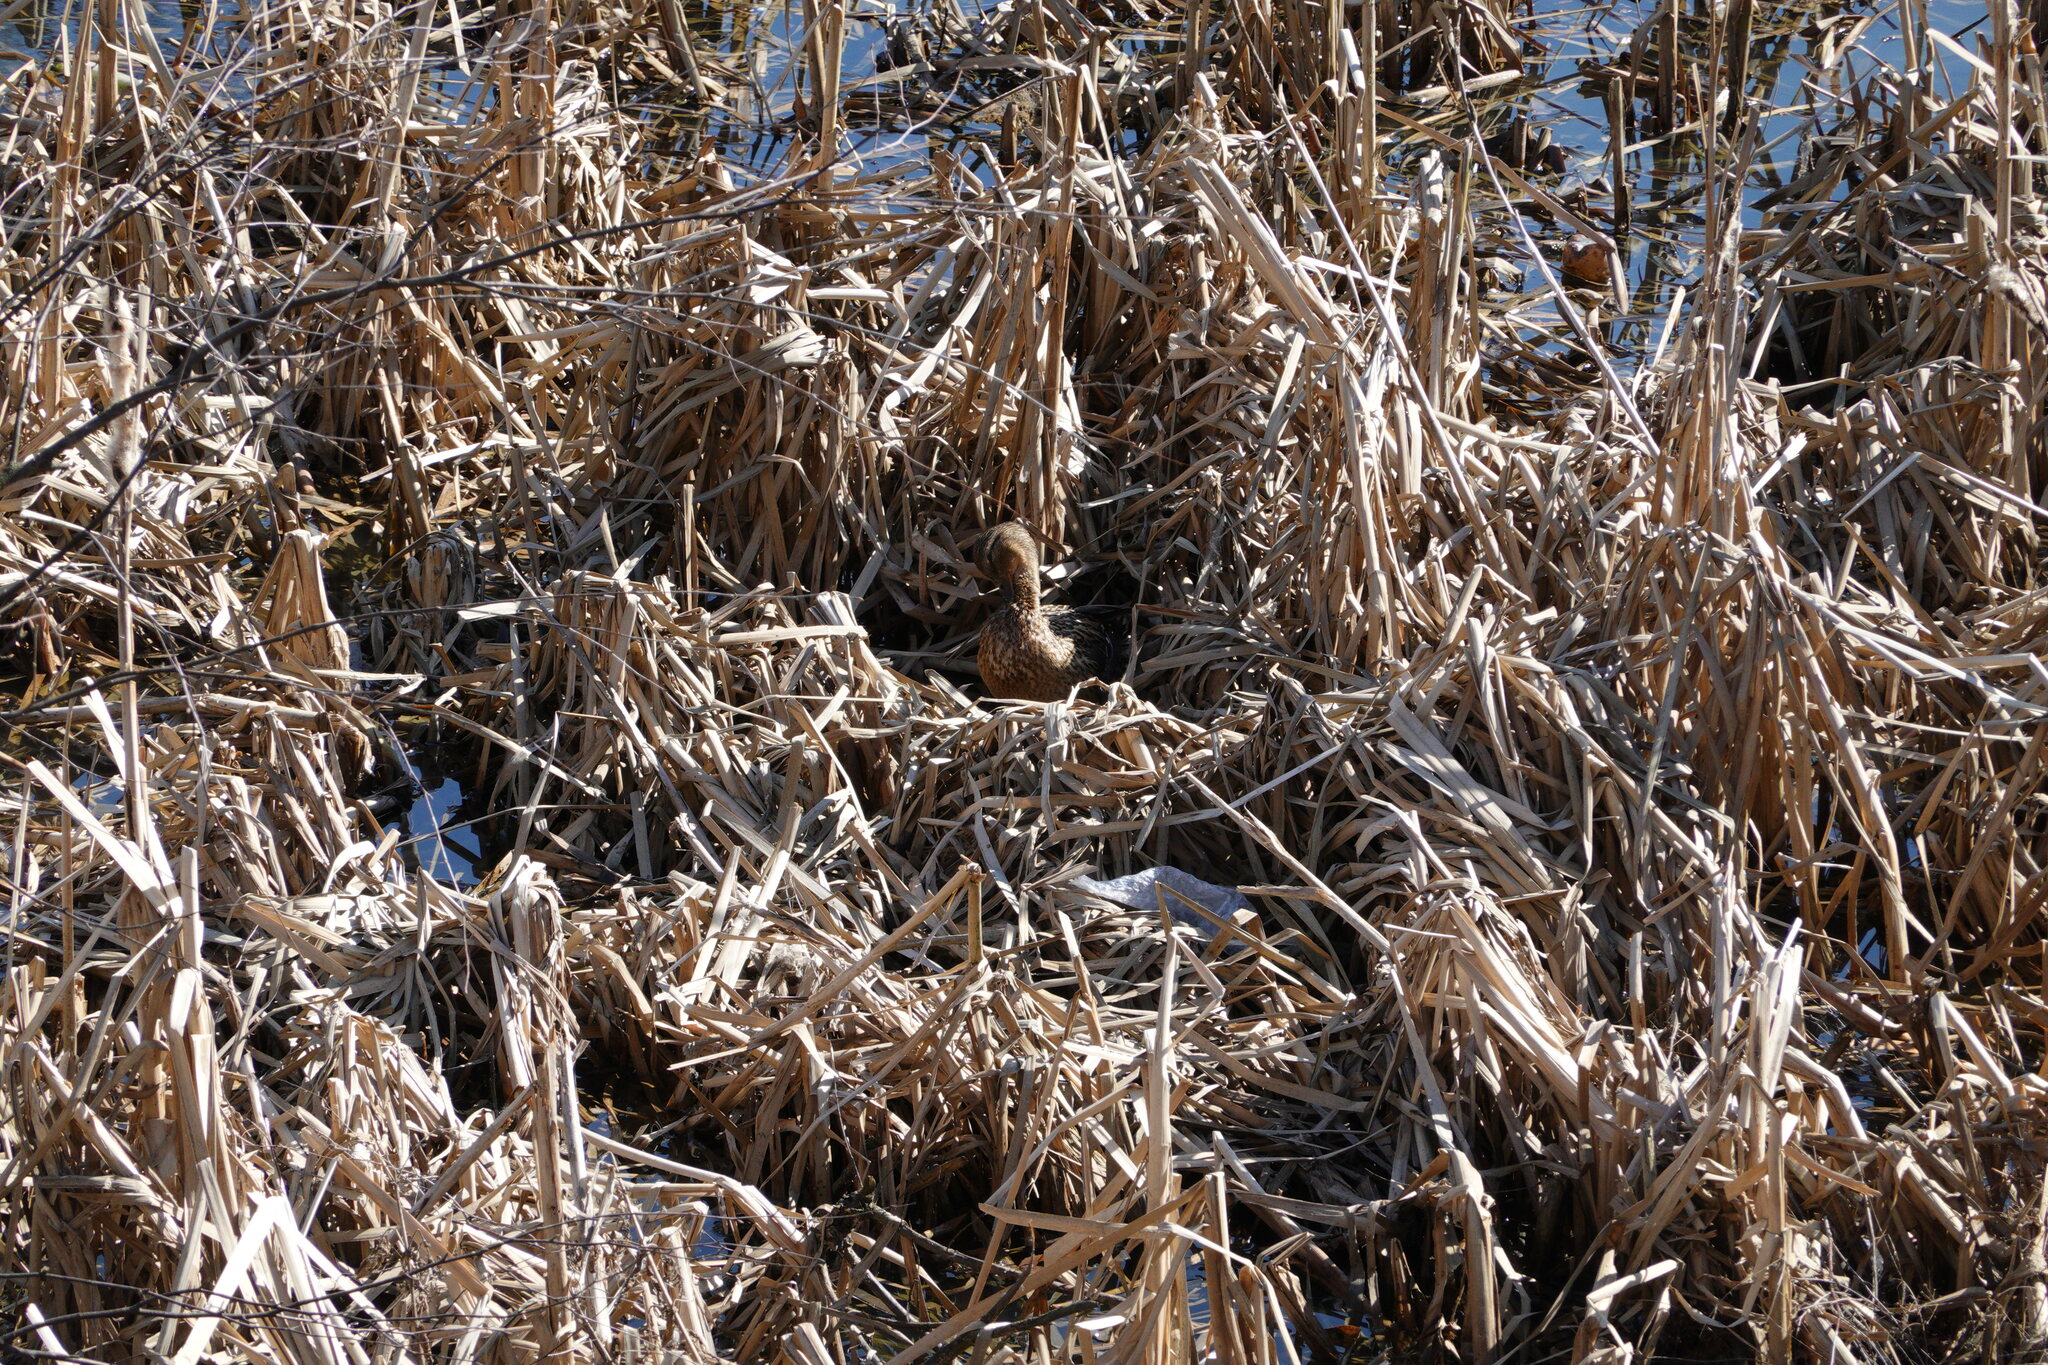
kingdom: Animalia
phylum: Chordata
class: Aves
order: Anseriformes
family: Anatidae
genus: Anas
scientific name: Anas platyrhynchos
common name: Mallard
